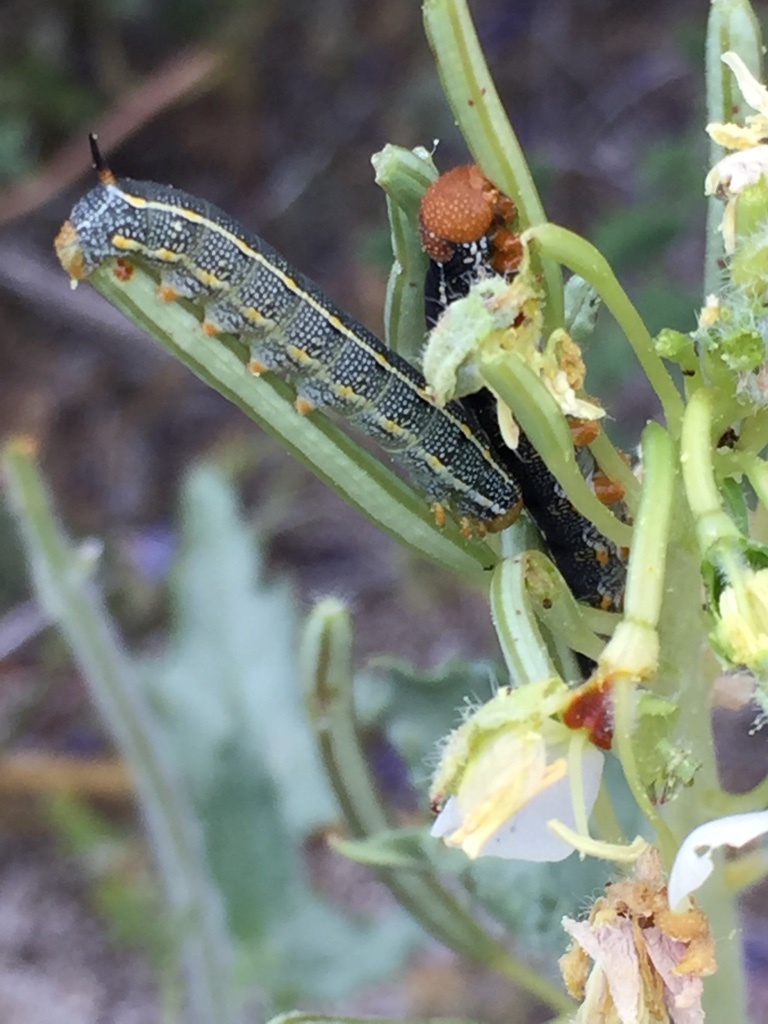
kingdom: Animalia
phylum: Arthropoda
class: Insecta
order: Lepidoptera
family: Sphingidae
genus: Hyles
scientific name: Hyles lineata
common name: White-lined sphinx
